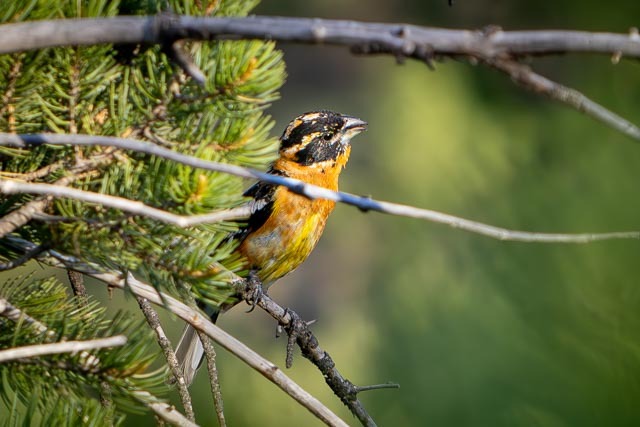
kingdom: Animalia
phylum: Chordata
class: Aves
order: Passeriformes
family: Cardinalidae
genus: Pheucticus
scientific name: Pheucticus melanocephalus
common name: Black-headed grosbeak
